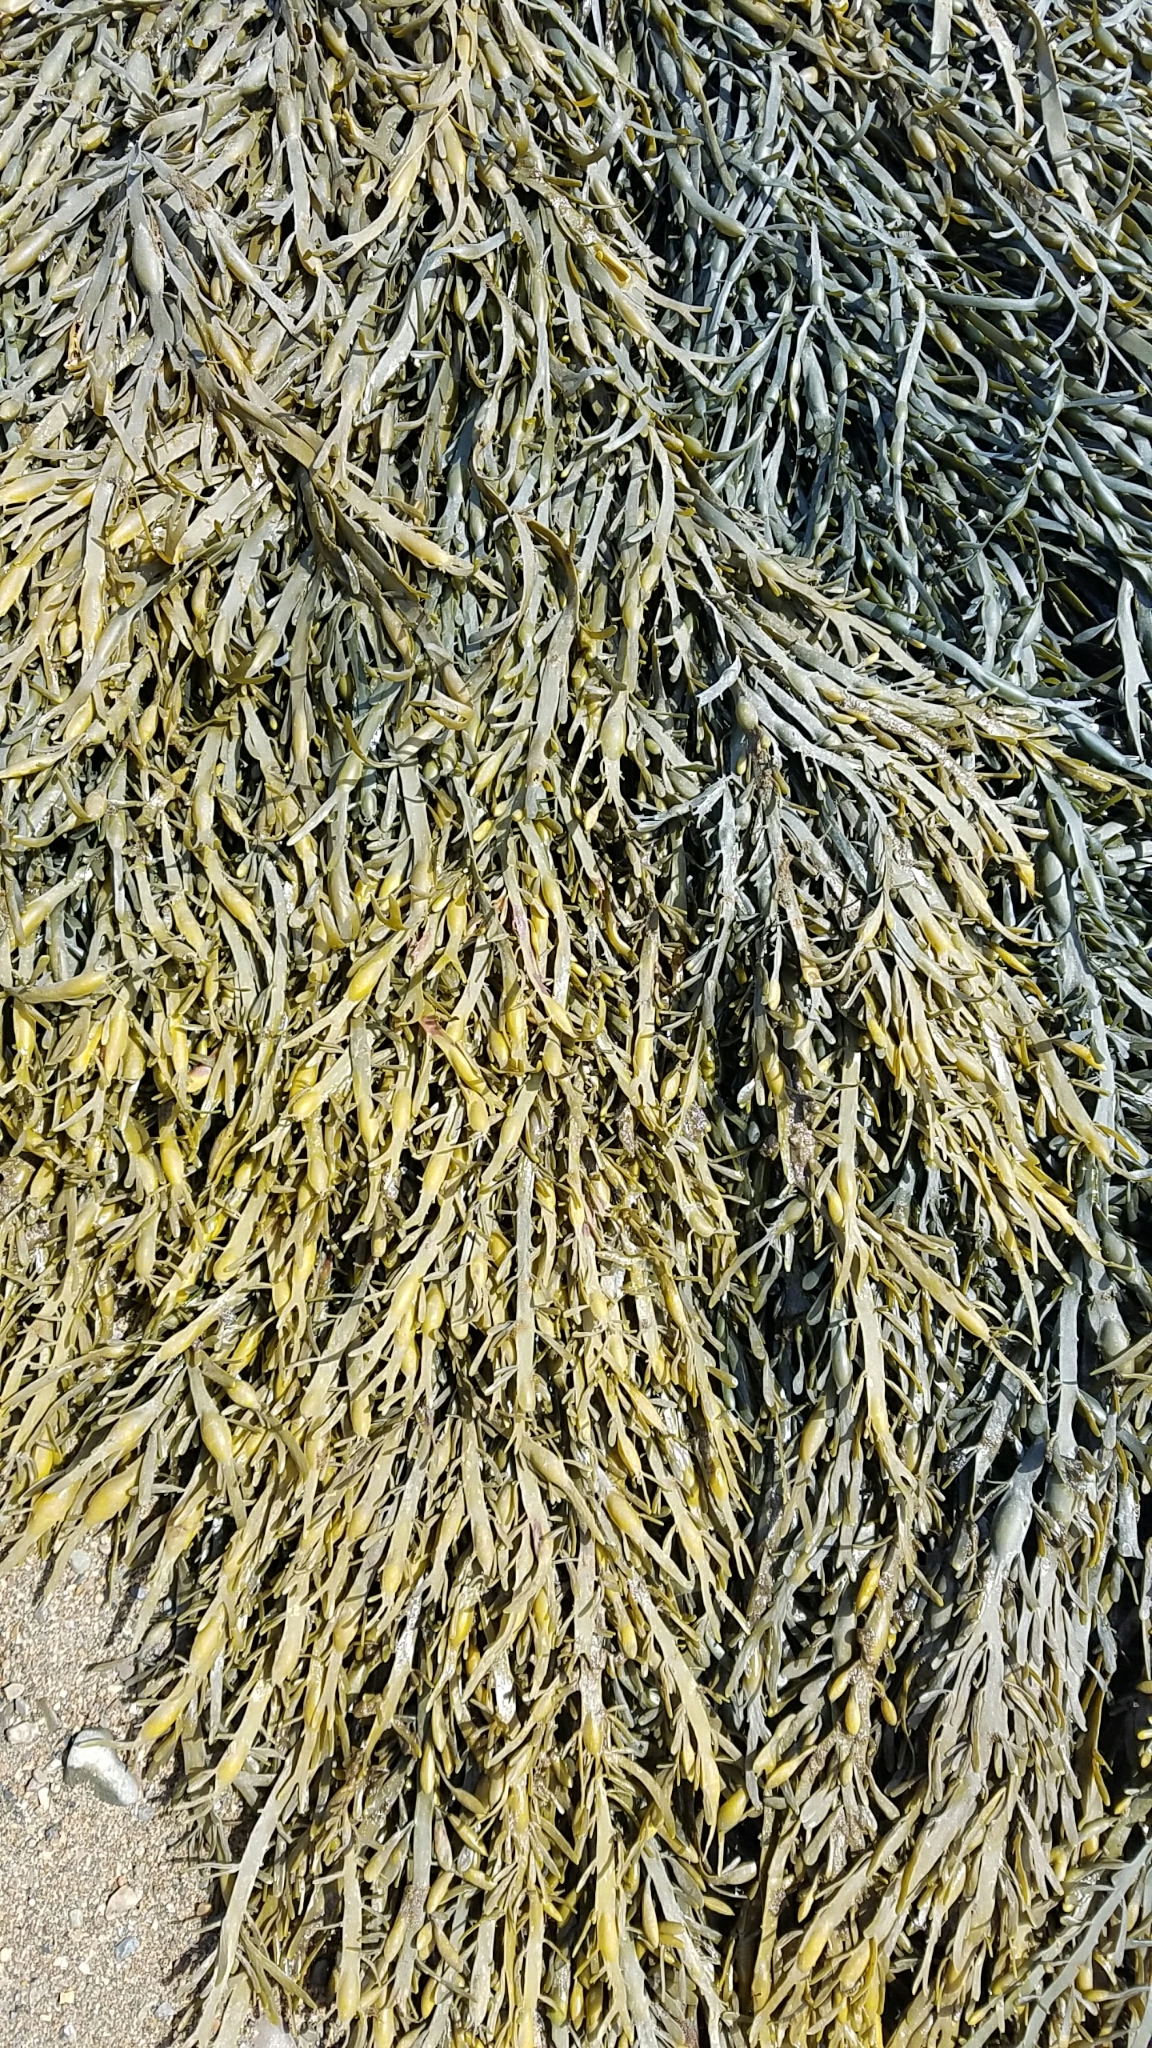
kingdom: Chromista
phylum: Ochrophyta
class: Phaeophyceae
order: Fucales
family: Fucaceae
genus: Ascophyllum
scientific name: Ascophyllum nodosum
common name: Knotted wrack
